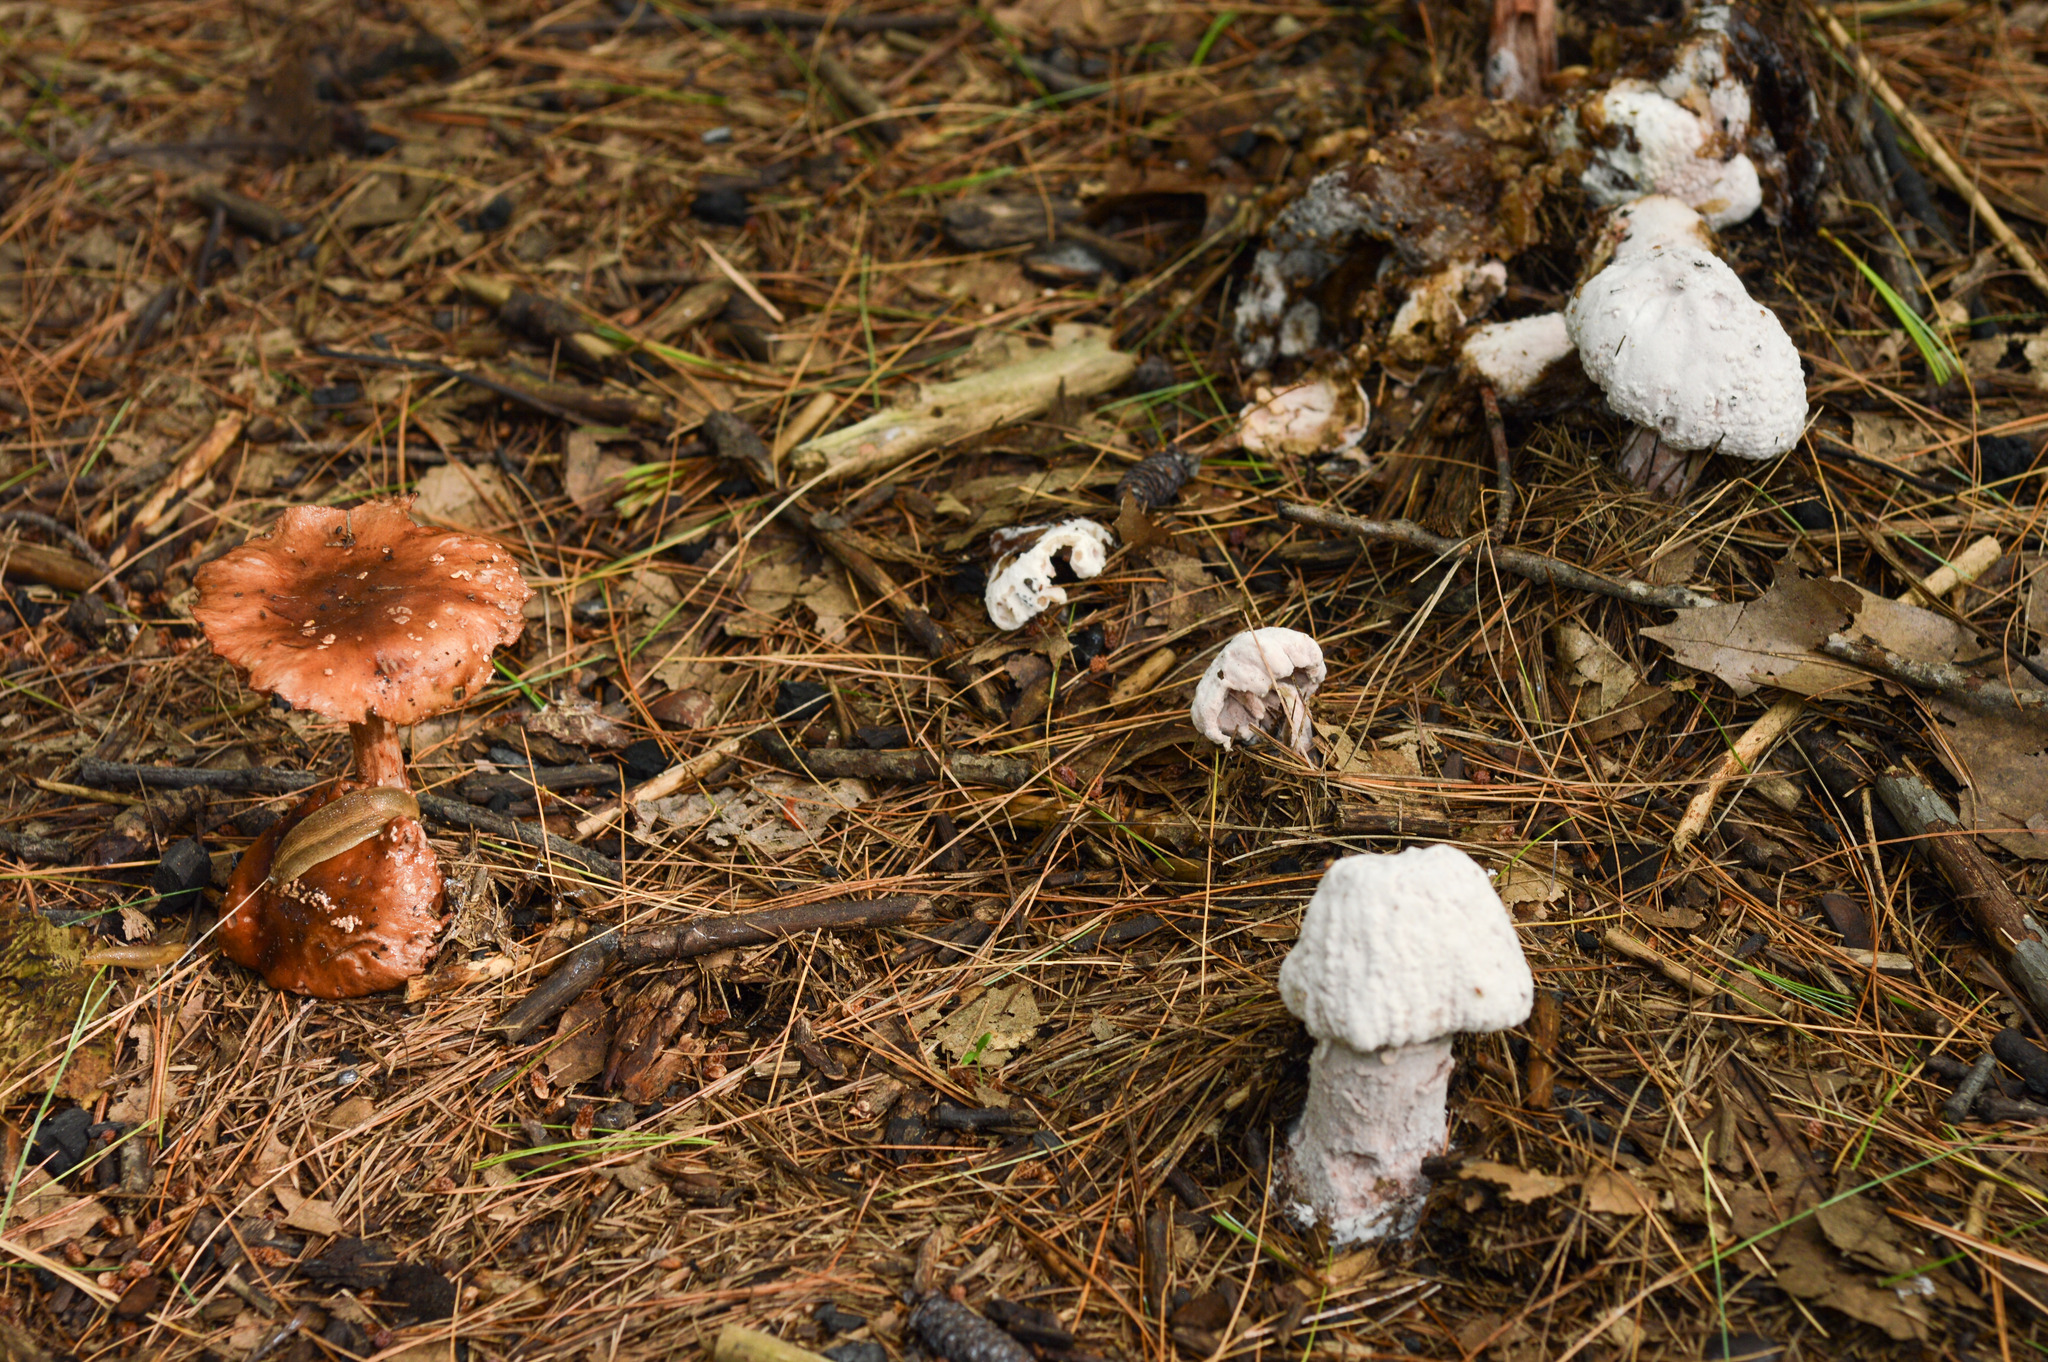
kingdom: Fungi
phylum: Ascomycota
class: Sordariomycetes
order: Hypocreales
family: Hypocreaceae
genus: Hypomyces
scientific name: Hypomyces hyalinus
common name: Amanita mold
